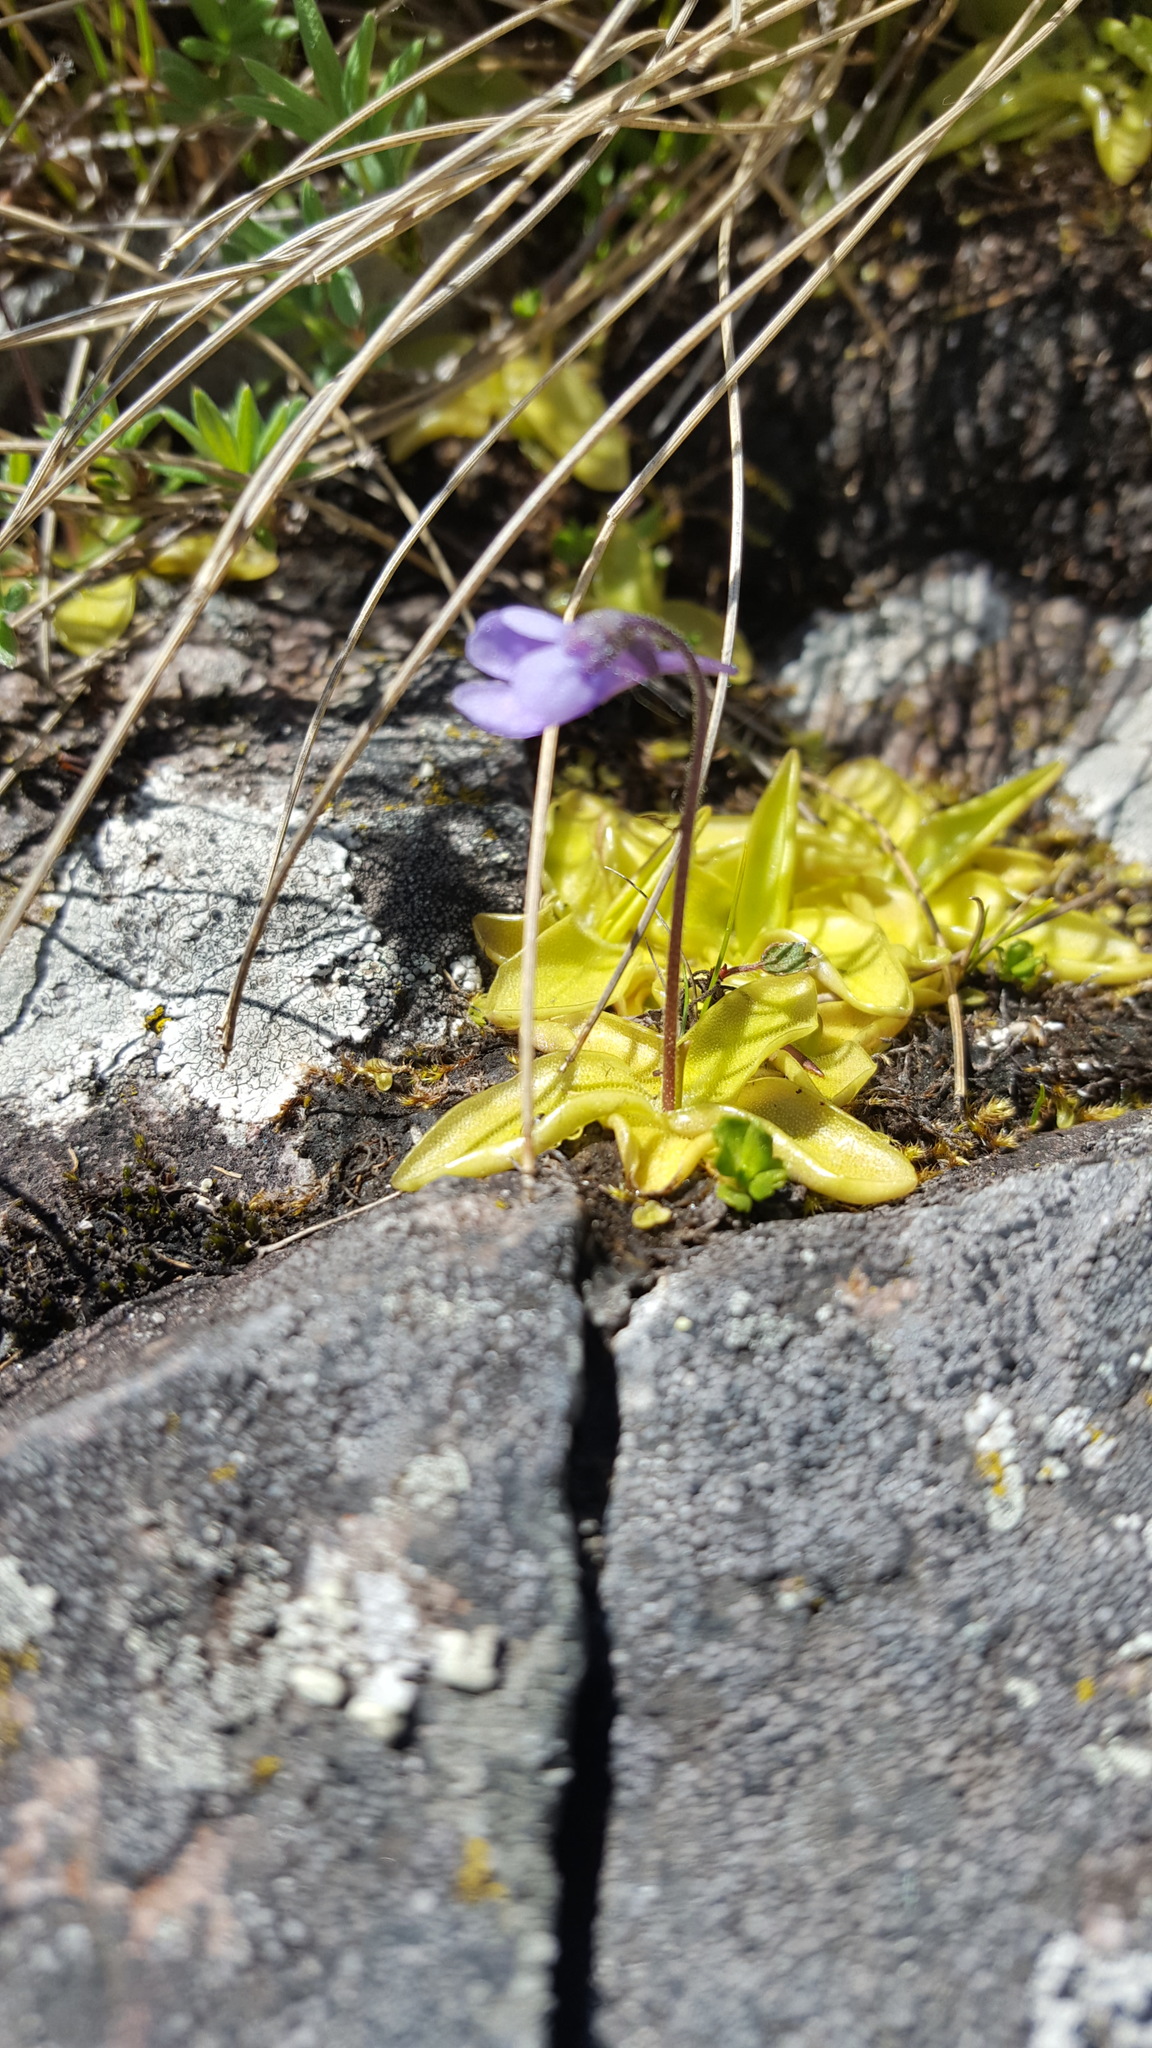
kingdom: Plantae
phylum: Tracheophyta
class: Magnoliopsida
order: Lamiales
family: Lentibulariaceae
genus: Pinguicula
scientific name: Pinguicula vulgaris
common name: Common butterwort
